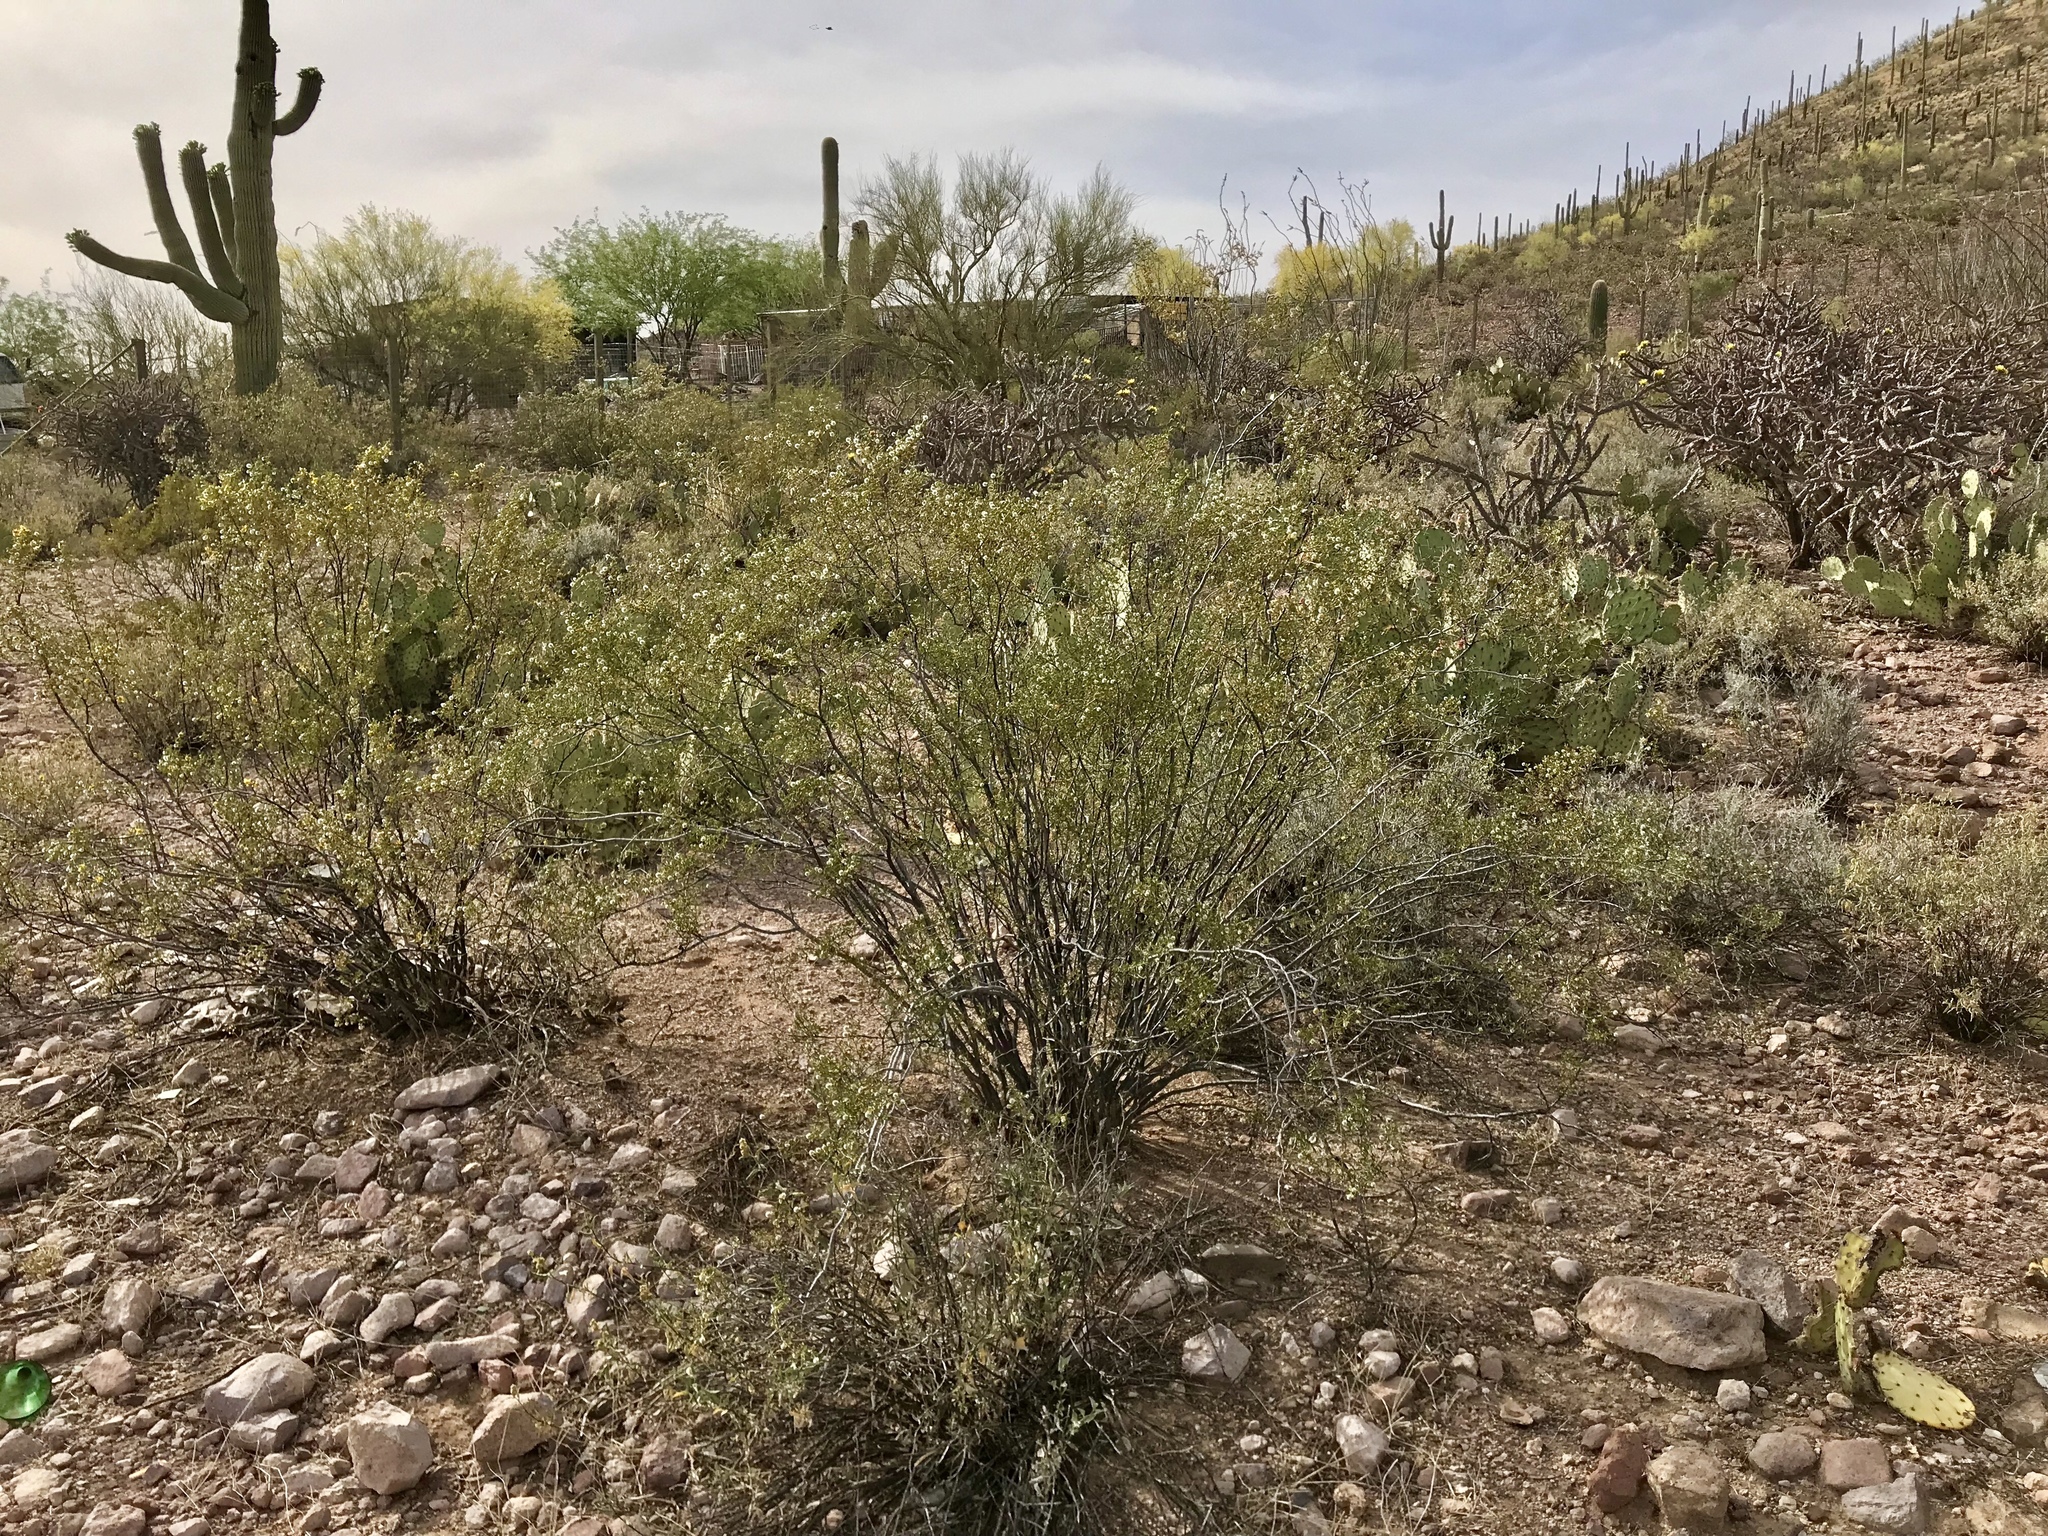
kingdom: Plantae
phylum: Tracheophyta
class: Magnoliopsida
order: Zygophyllales
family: Zygophyllaceae
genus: Larrea
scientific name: Larrea tridentata
